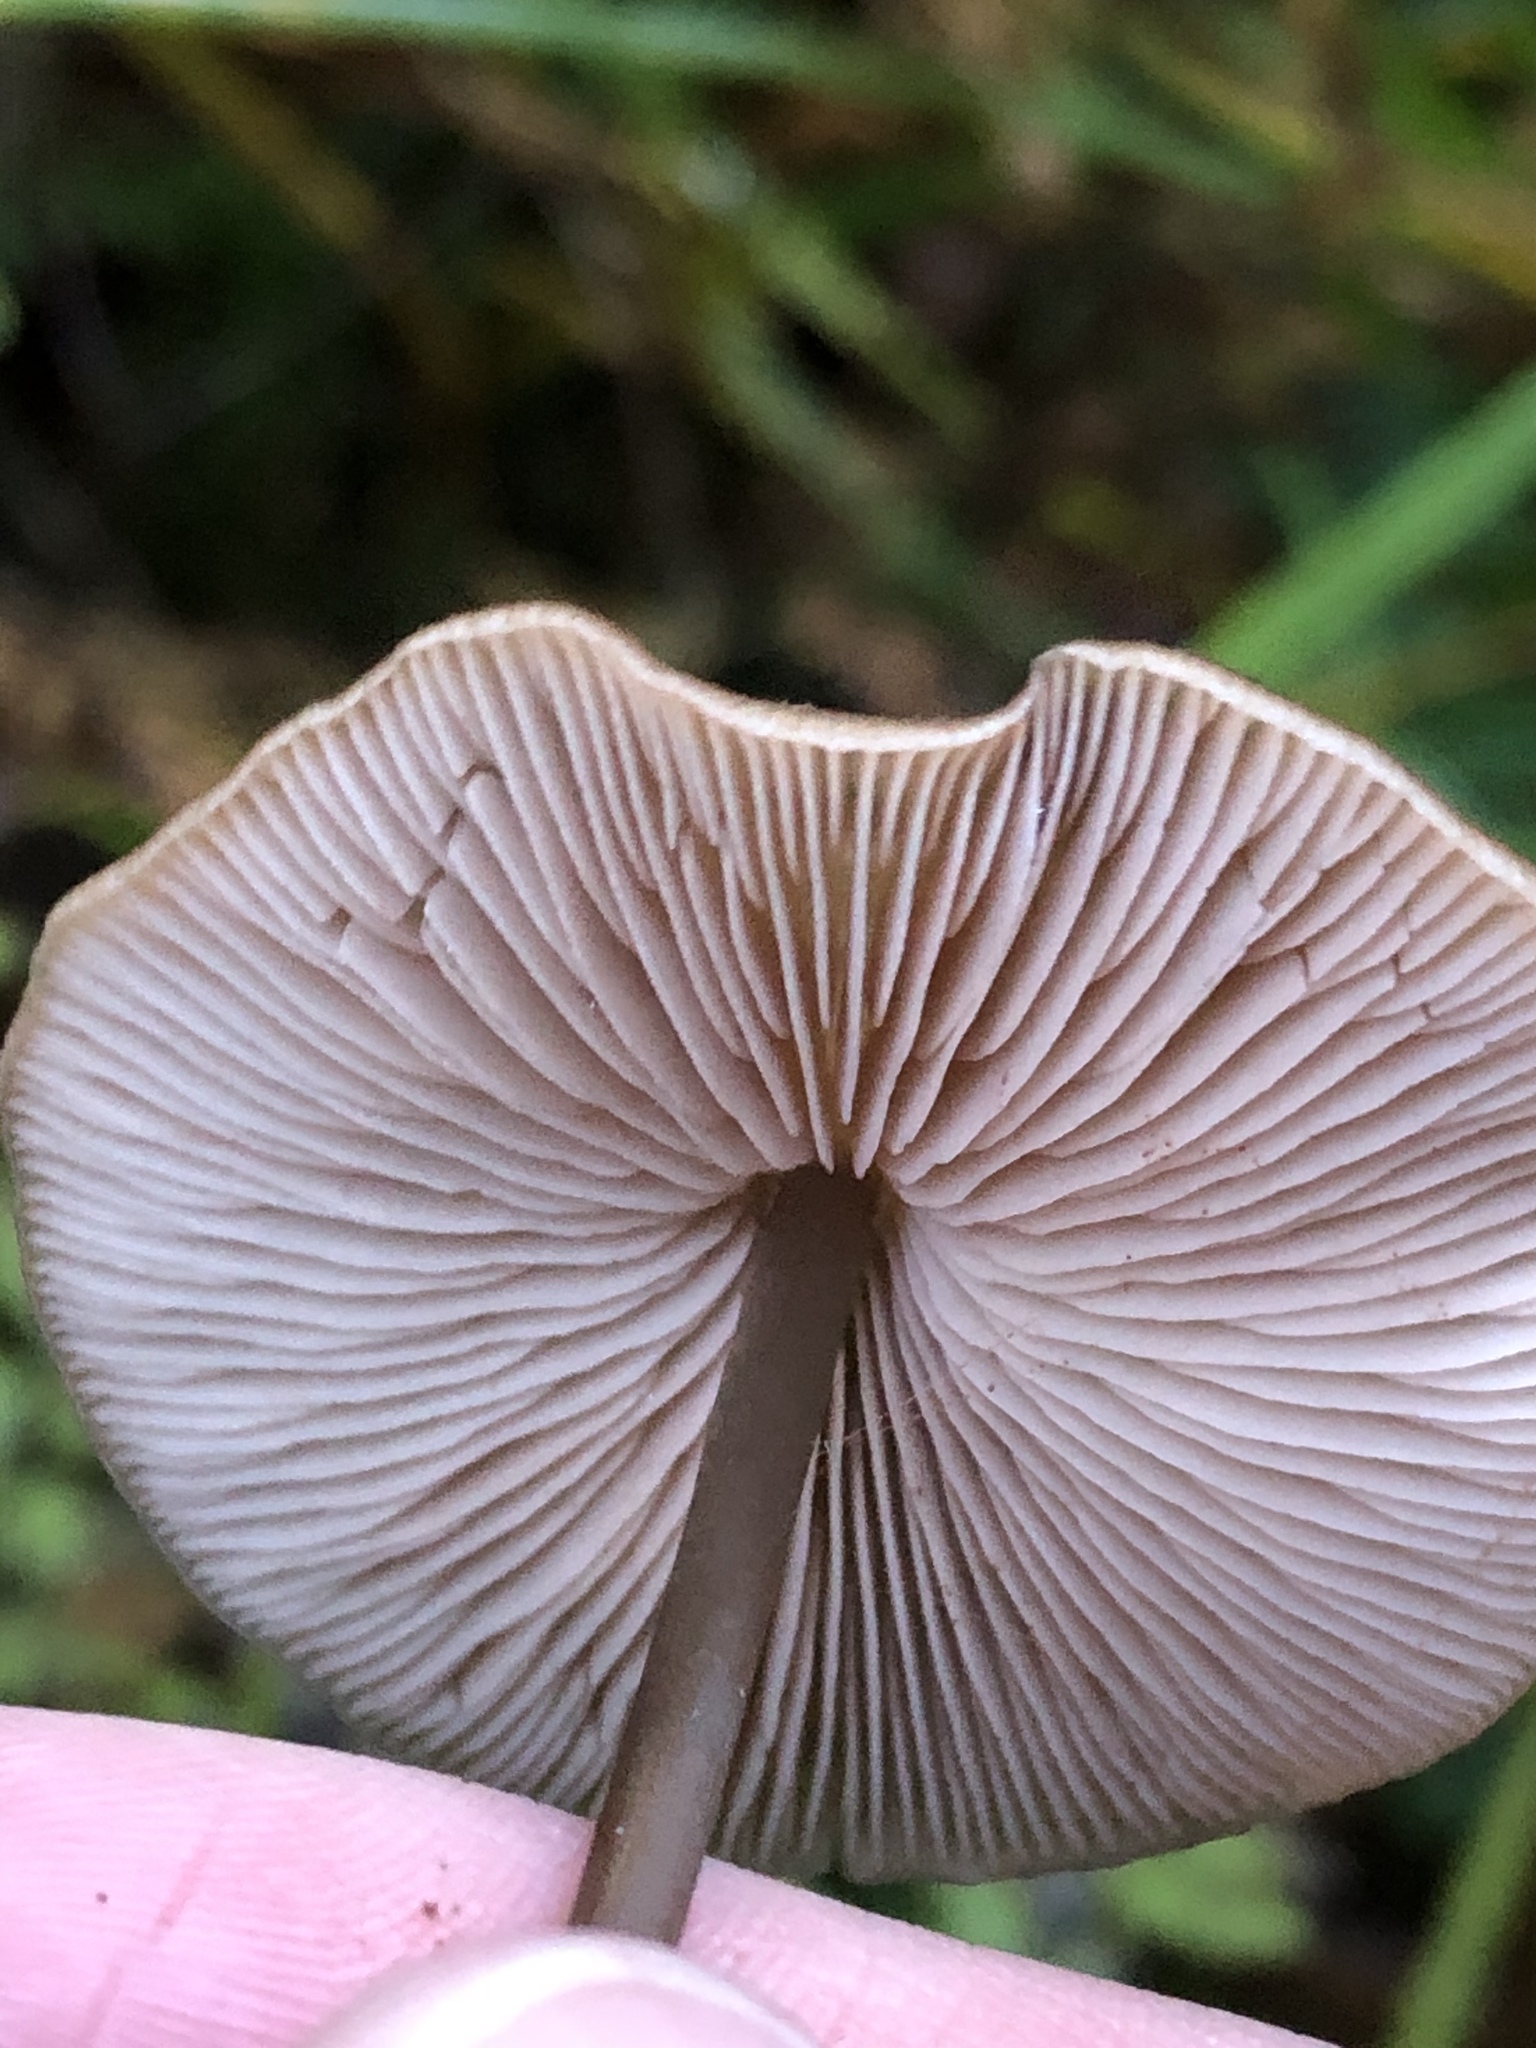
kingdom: Fungi
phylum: Basidiomycota
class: Agaricomycetes
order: Agaricales
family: Entolomataceae
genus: Entoloma
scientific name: Entoloma bicoloripes
